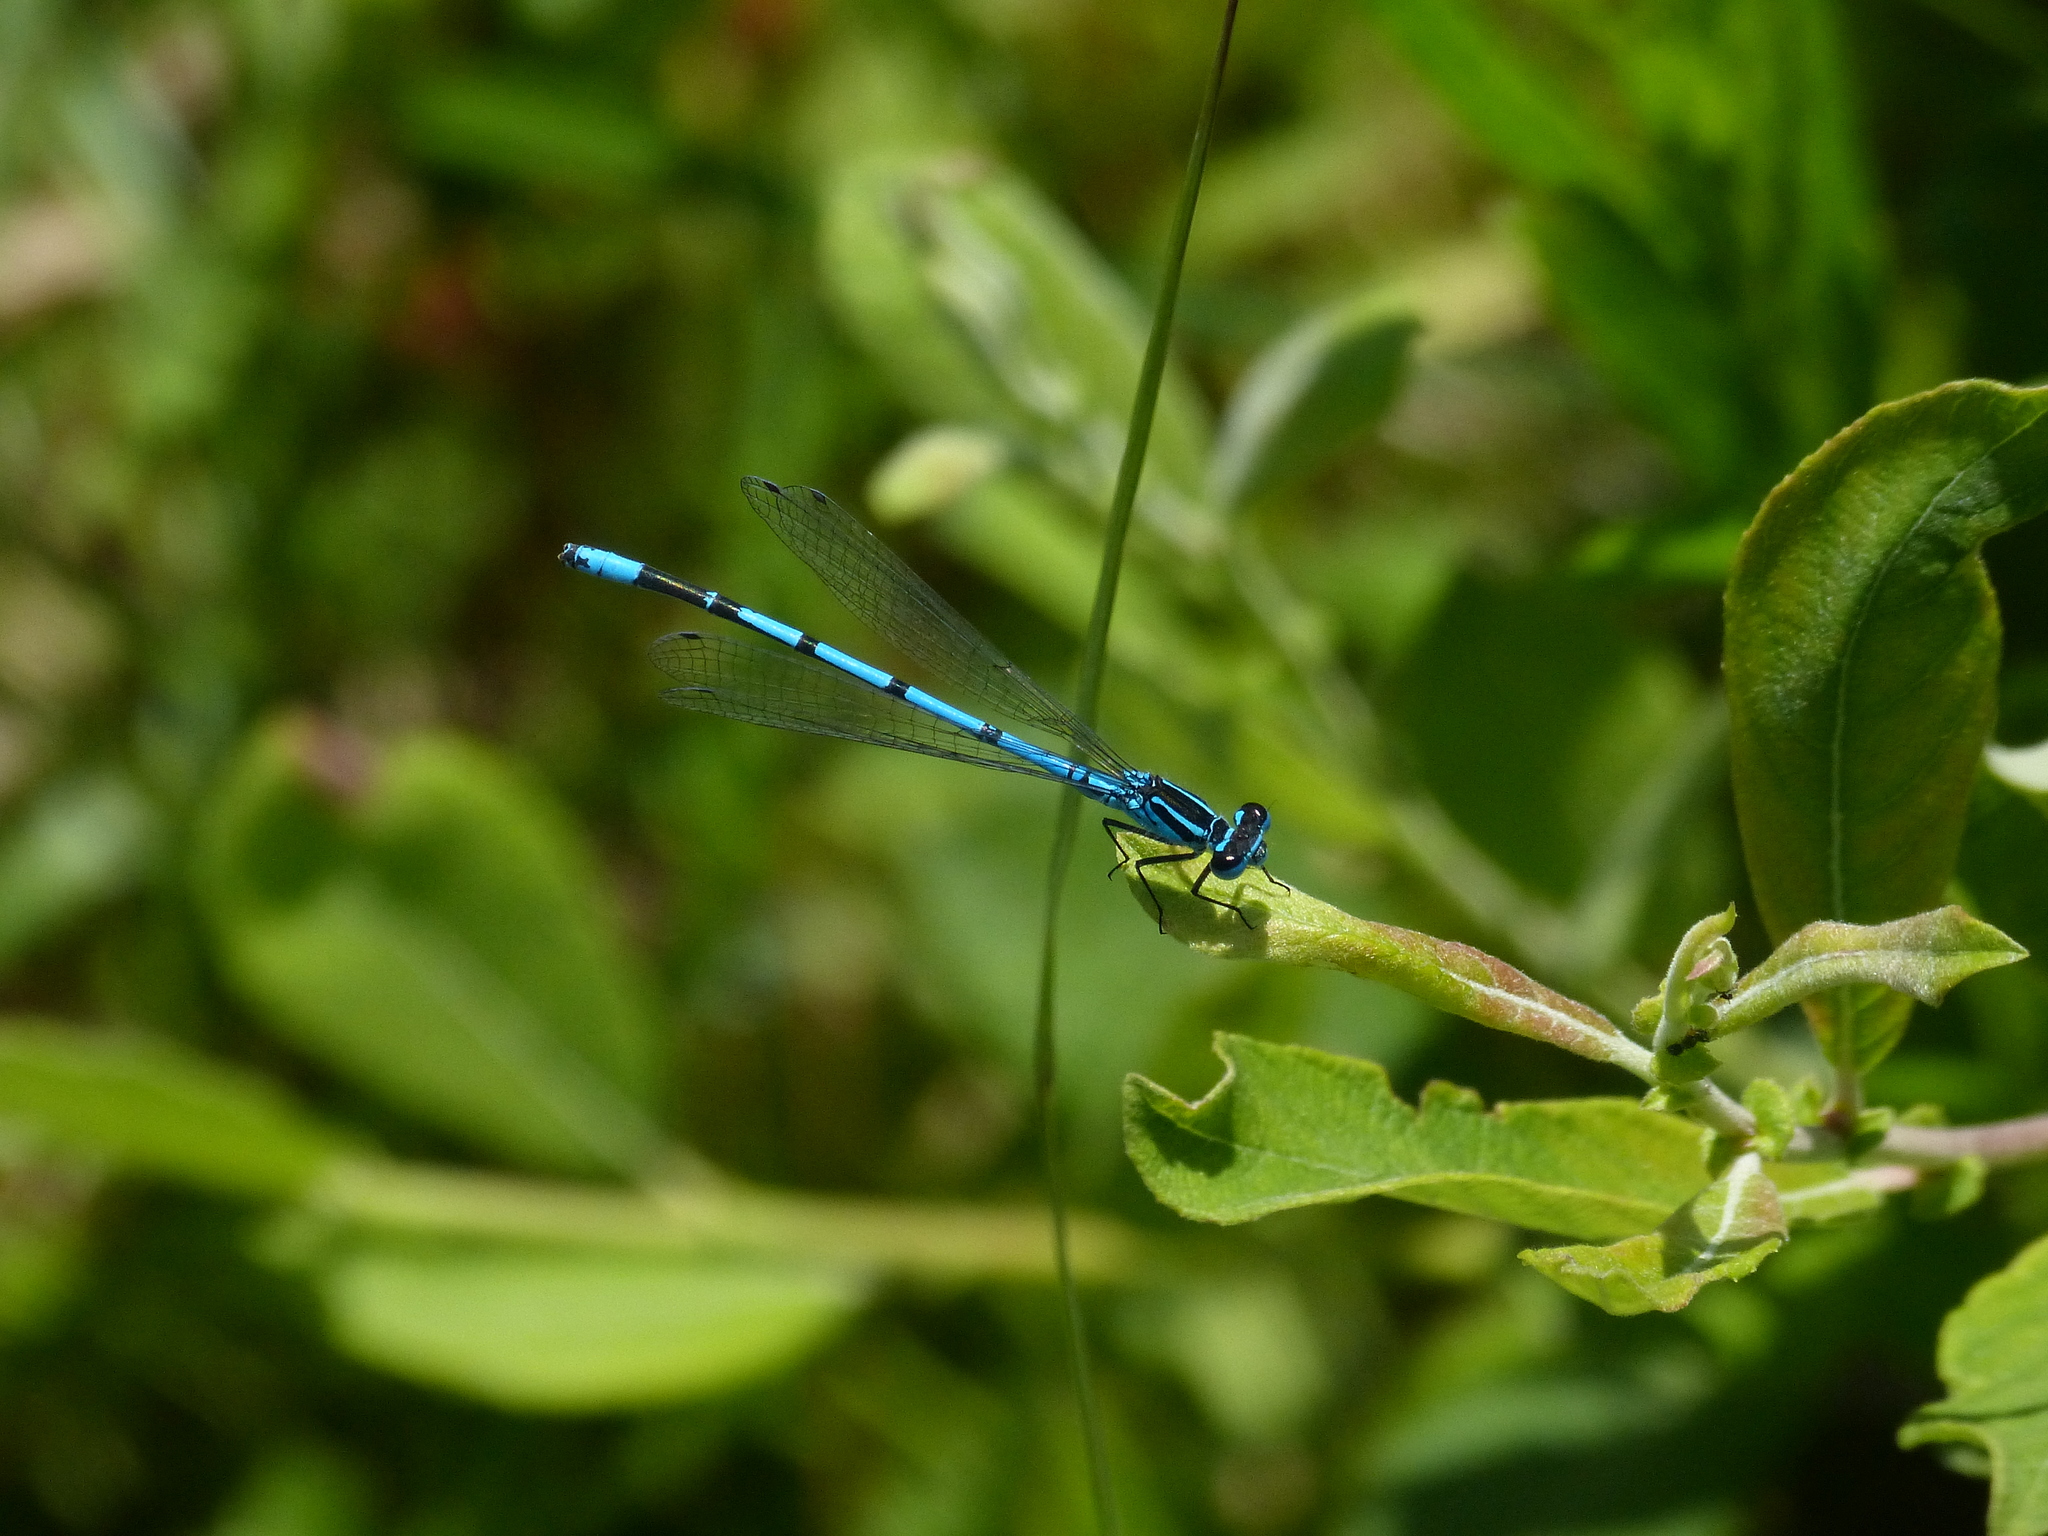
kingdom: Animalia
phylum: Arthropoda
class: Insecta
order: Odonata
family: Coenagrionidae
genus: Coenagrion
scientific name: Coenagrion puella
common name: Azure damselfly
